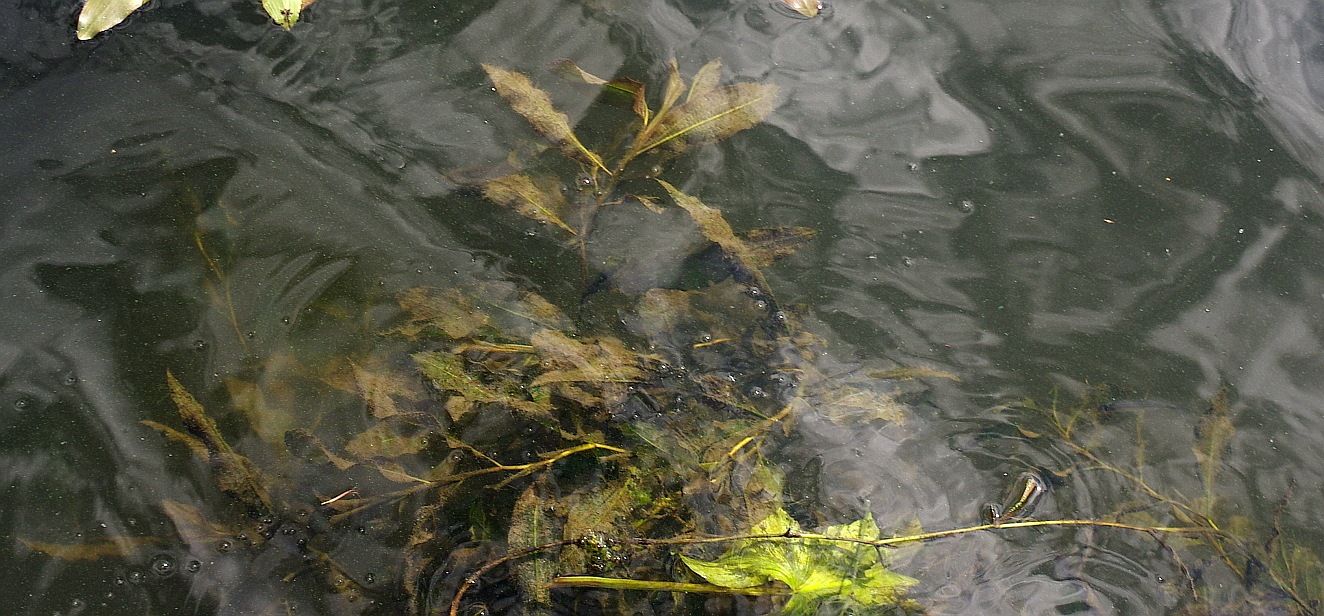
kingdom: Plantae
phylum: Tracheophyta
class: Liliopsida
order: Alismatales
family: Potamogetonaceae
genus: Potamogeton
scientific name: Potamogeton lucens
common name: Shining pondweed
